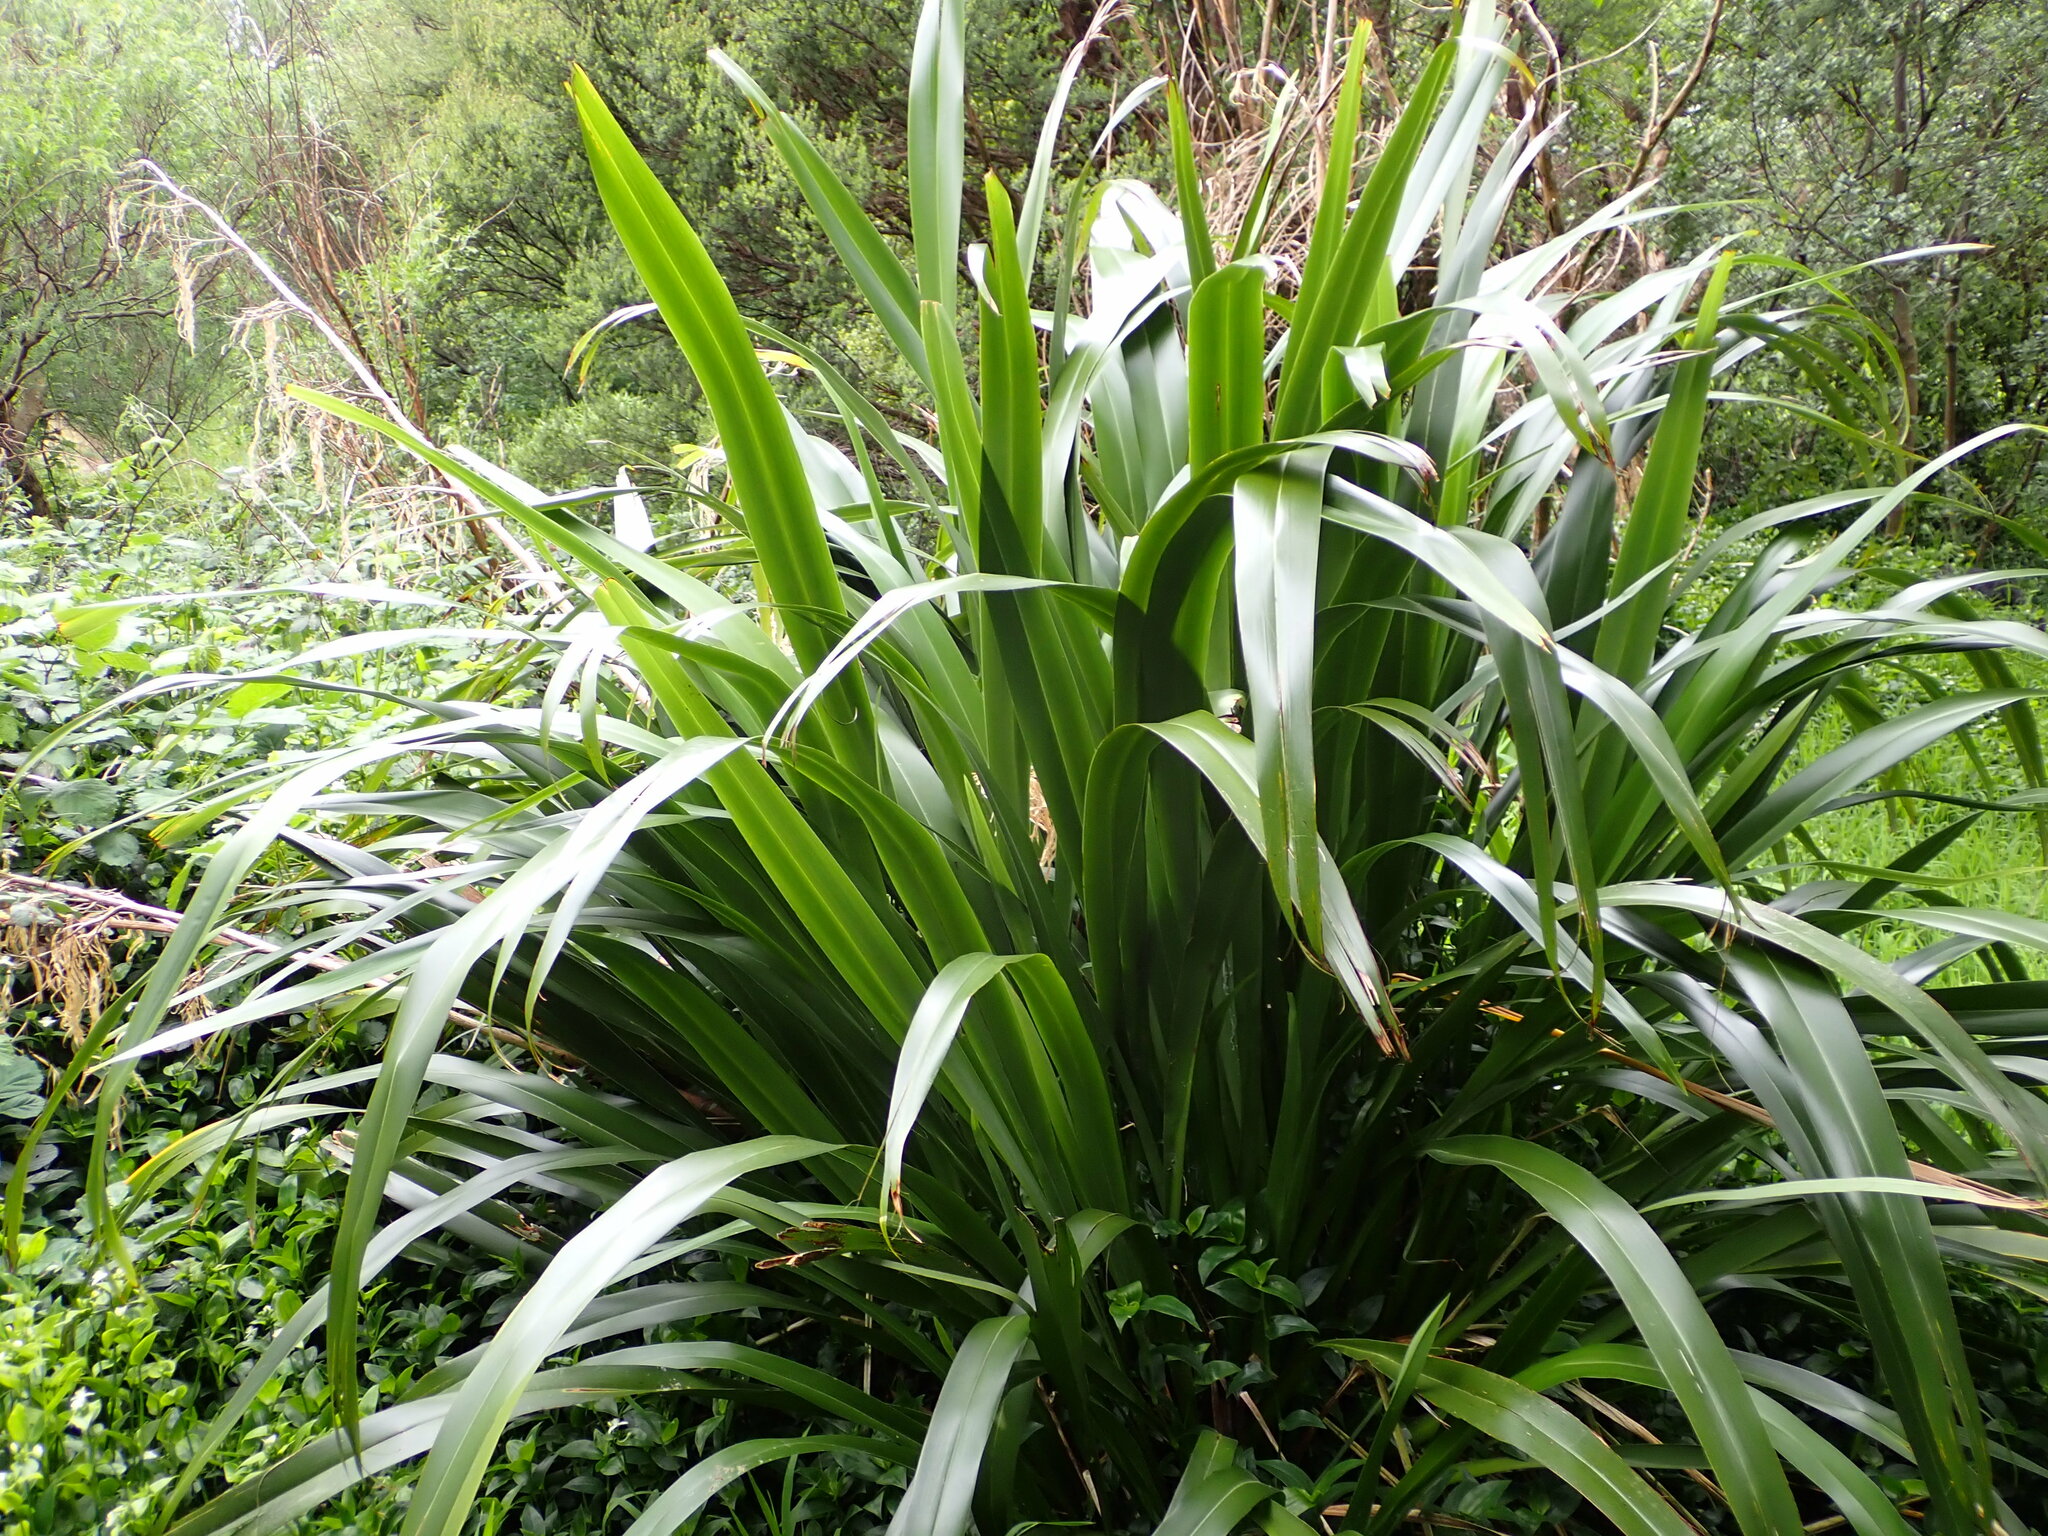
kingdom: Plantae
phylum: Tracheophyta
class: Liliopsida
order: Asparagales
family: Asphodelaceae
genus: Phormium
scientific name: Phormium colensoi
